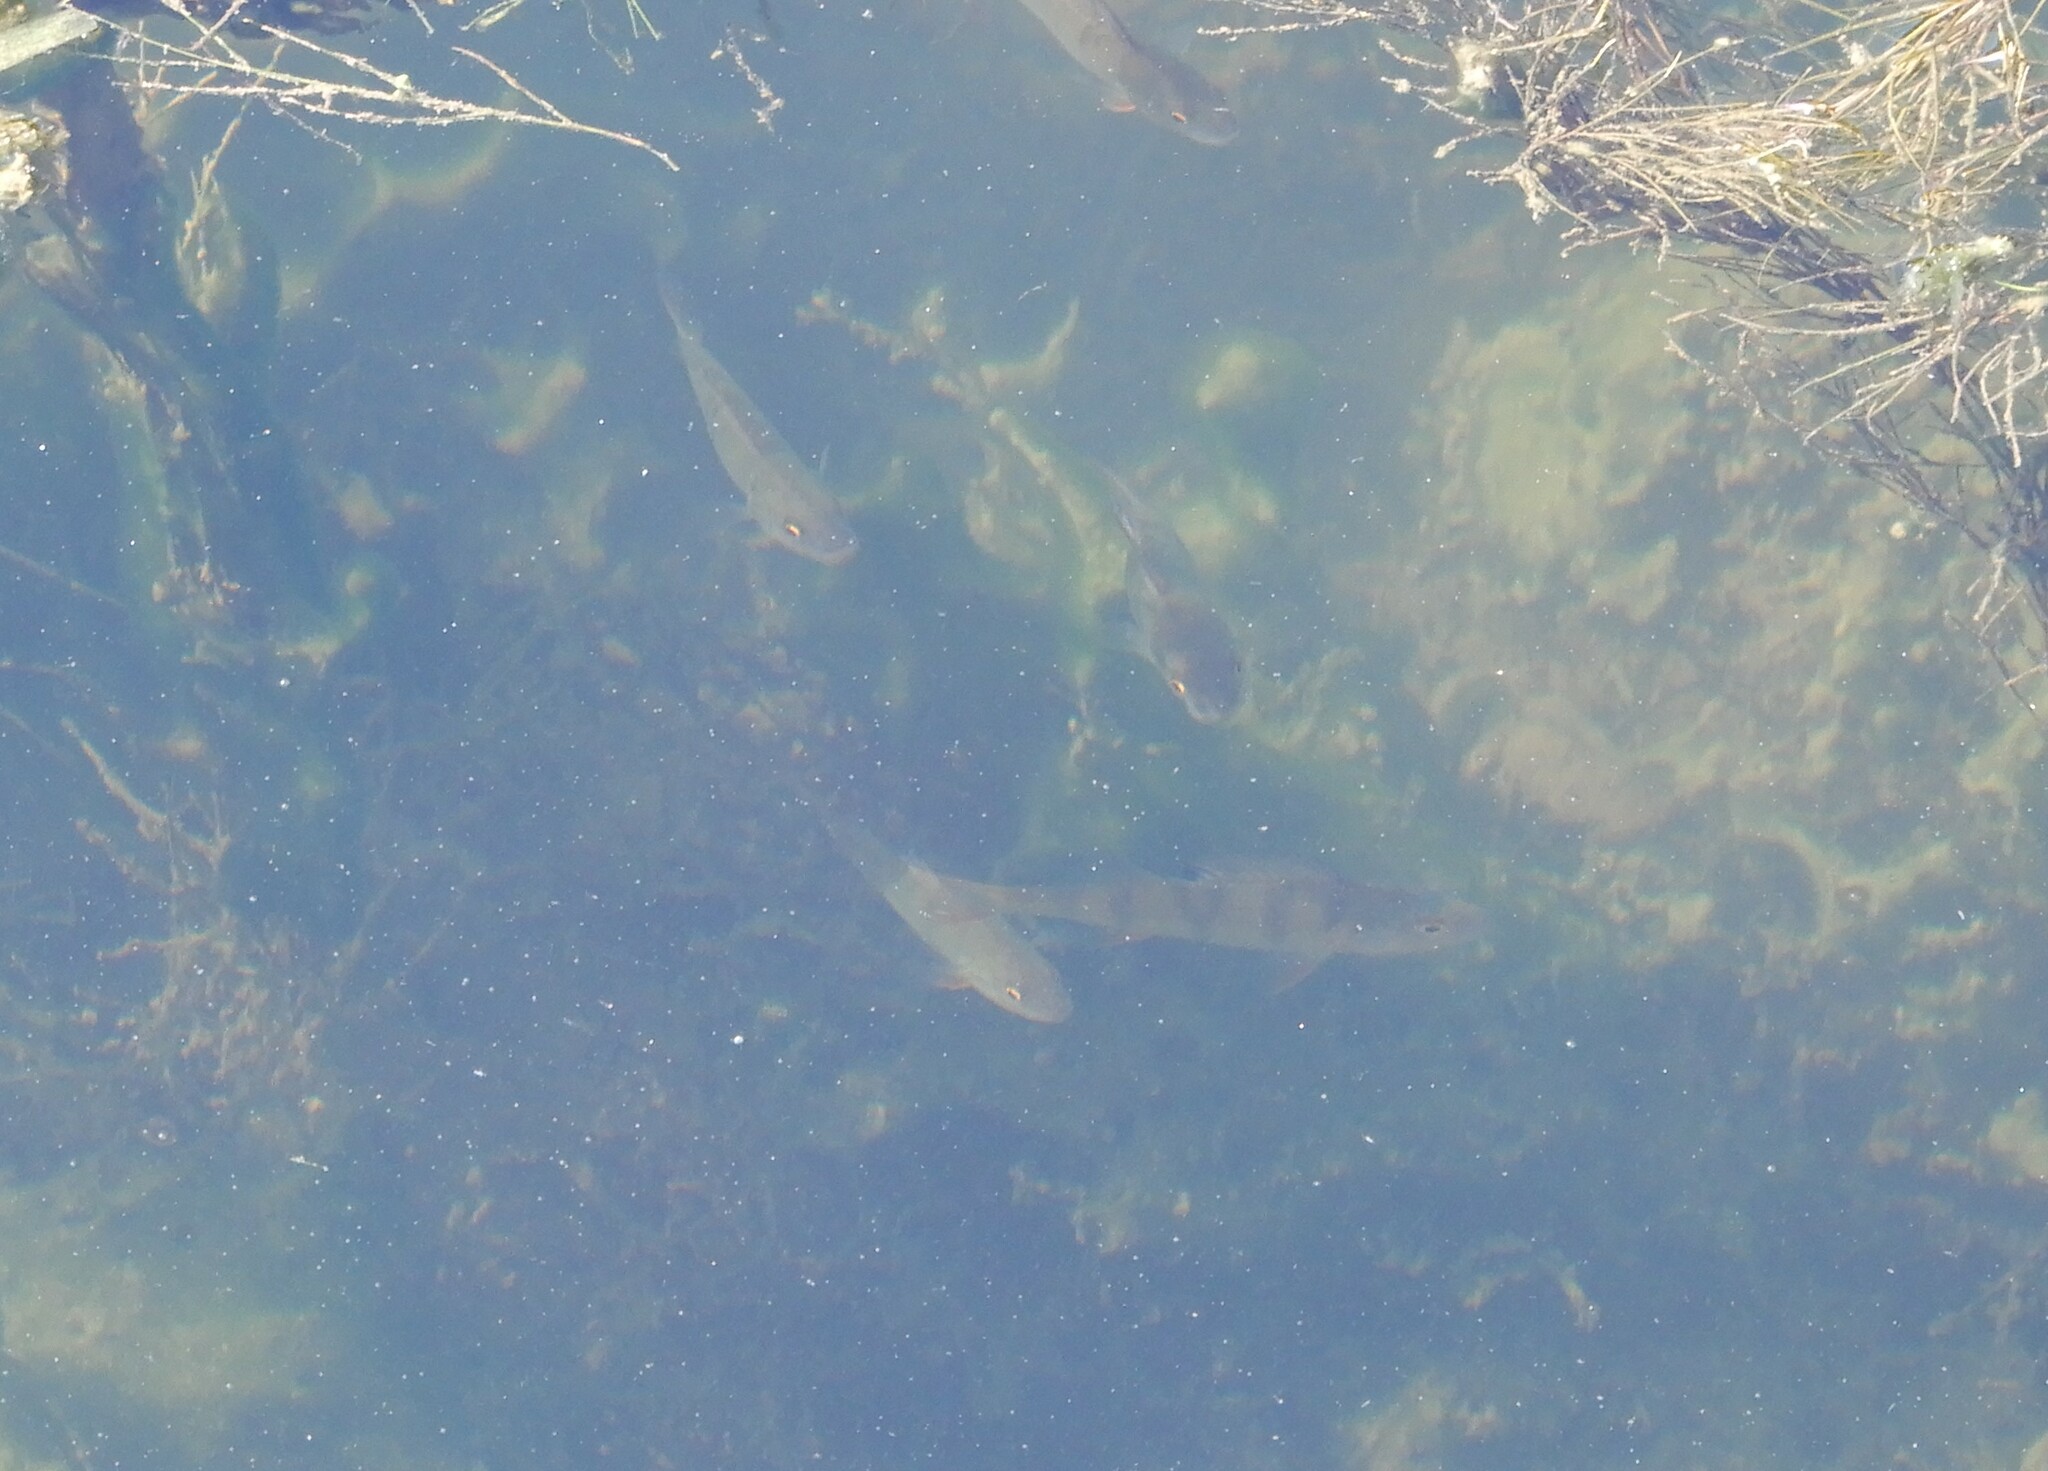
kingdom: Animalia
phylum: Chordata
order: Perciformes
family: Percidae
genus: Perca
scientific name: Perca fluviatilis
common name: Perch
